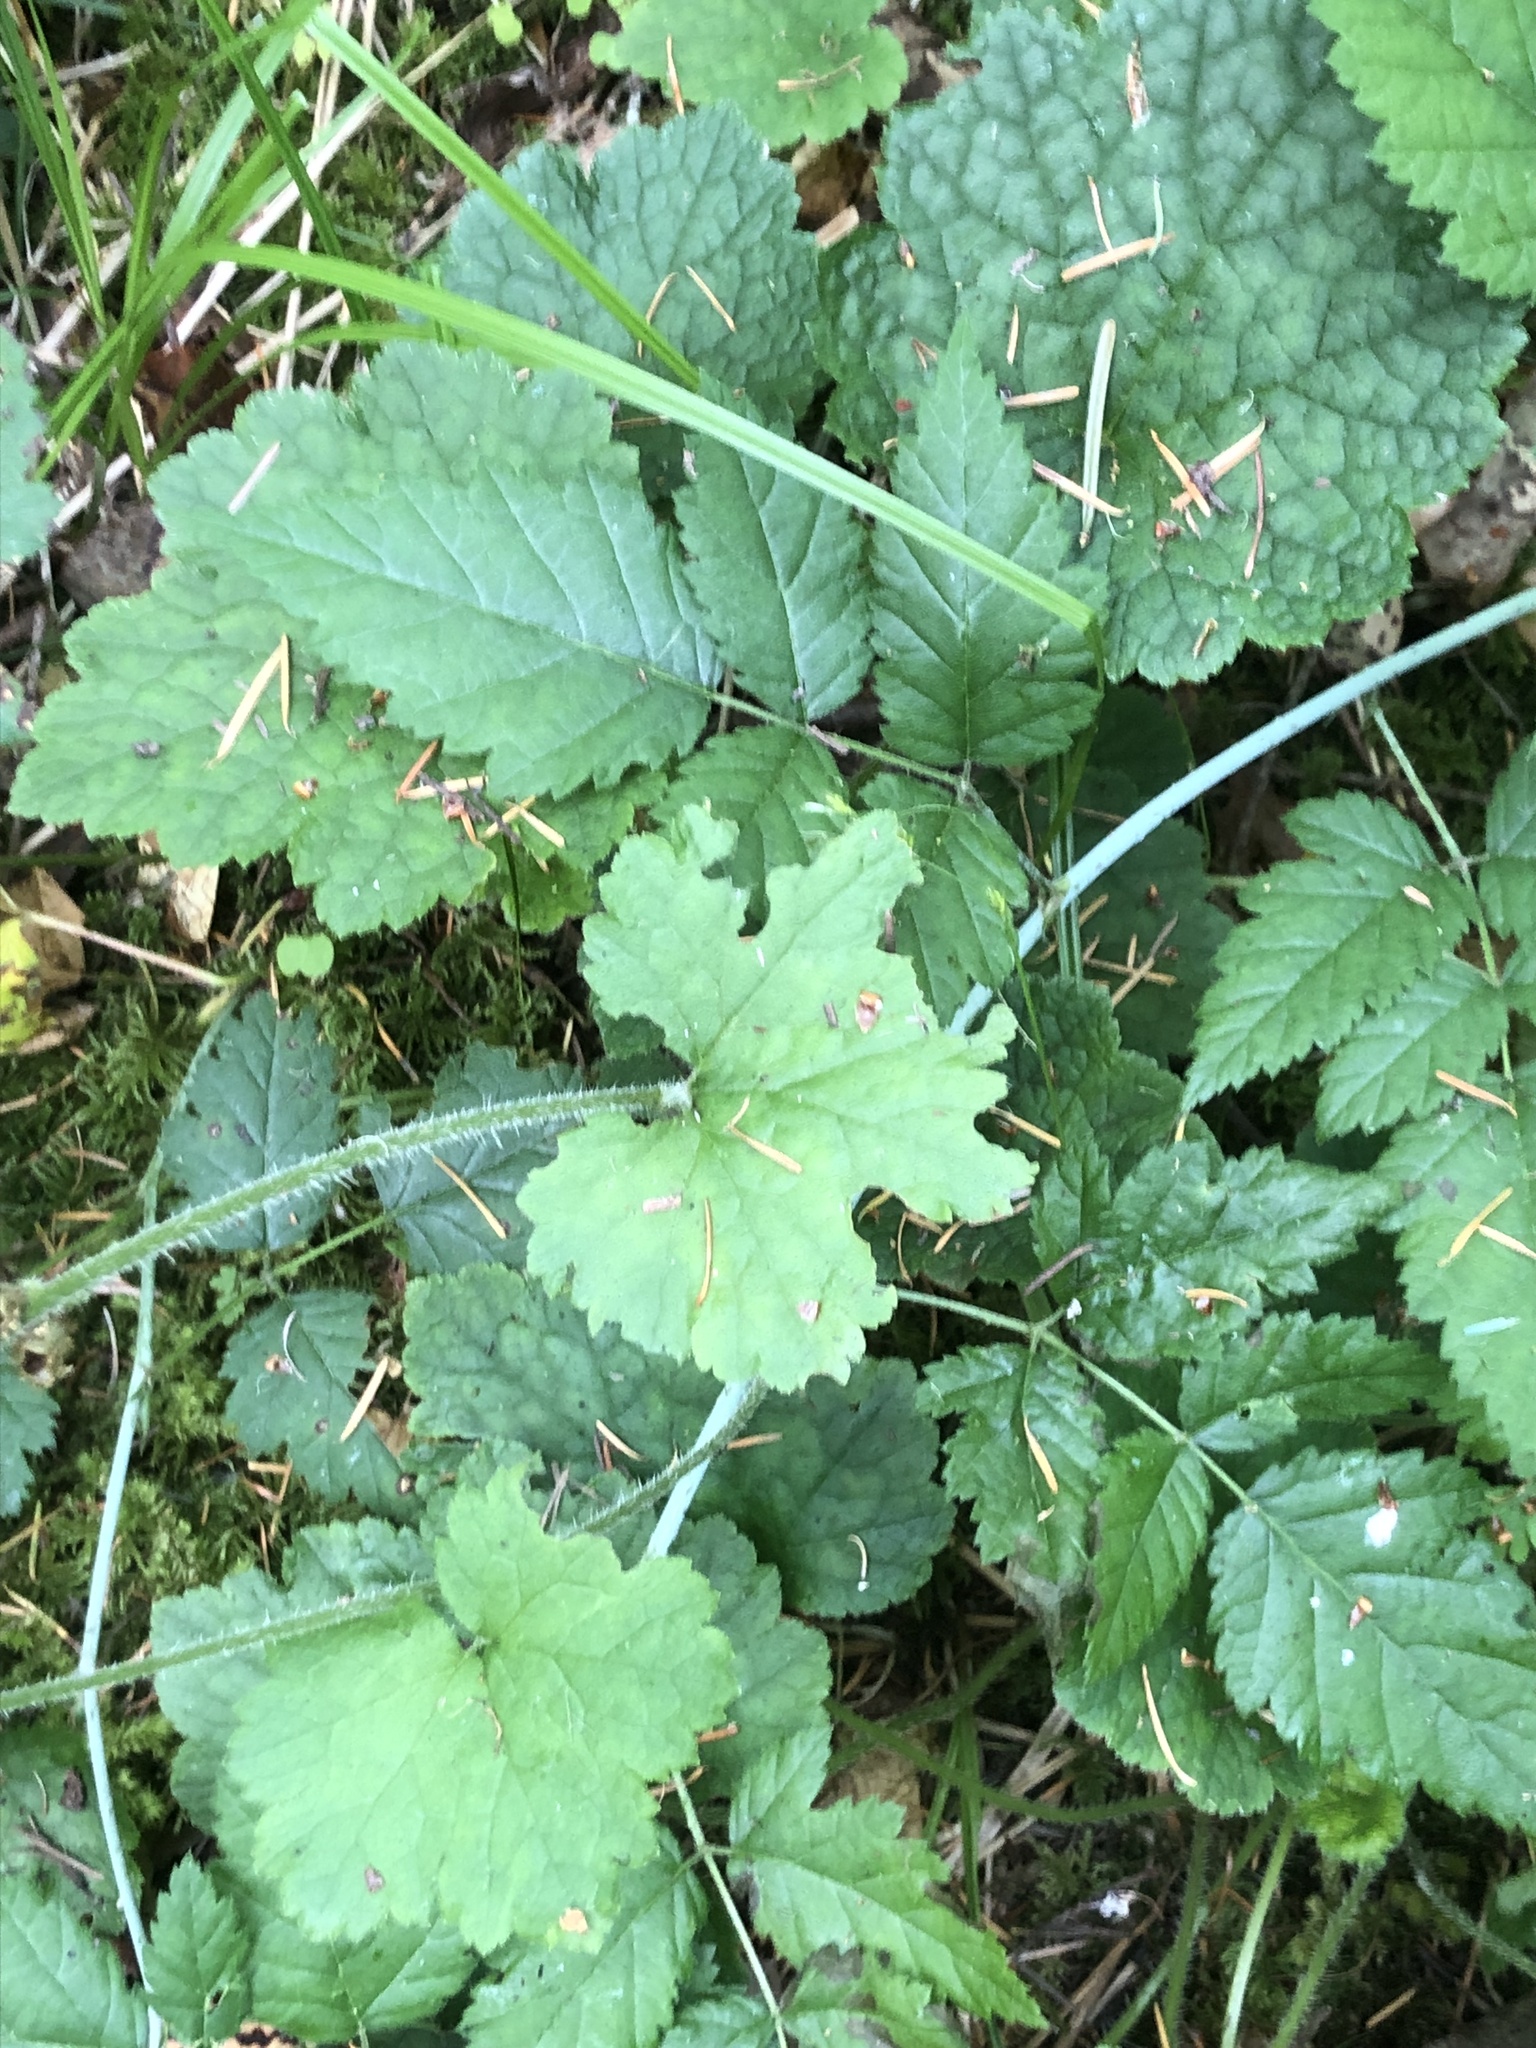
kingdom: Plantae
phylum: Tracheophyta
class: Magnoliopsida
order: Saxifragales
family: Saxifragaceae
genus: Tellima
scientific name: Tellima grandiflora
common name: Fringecups
